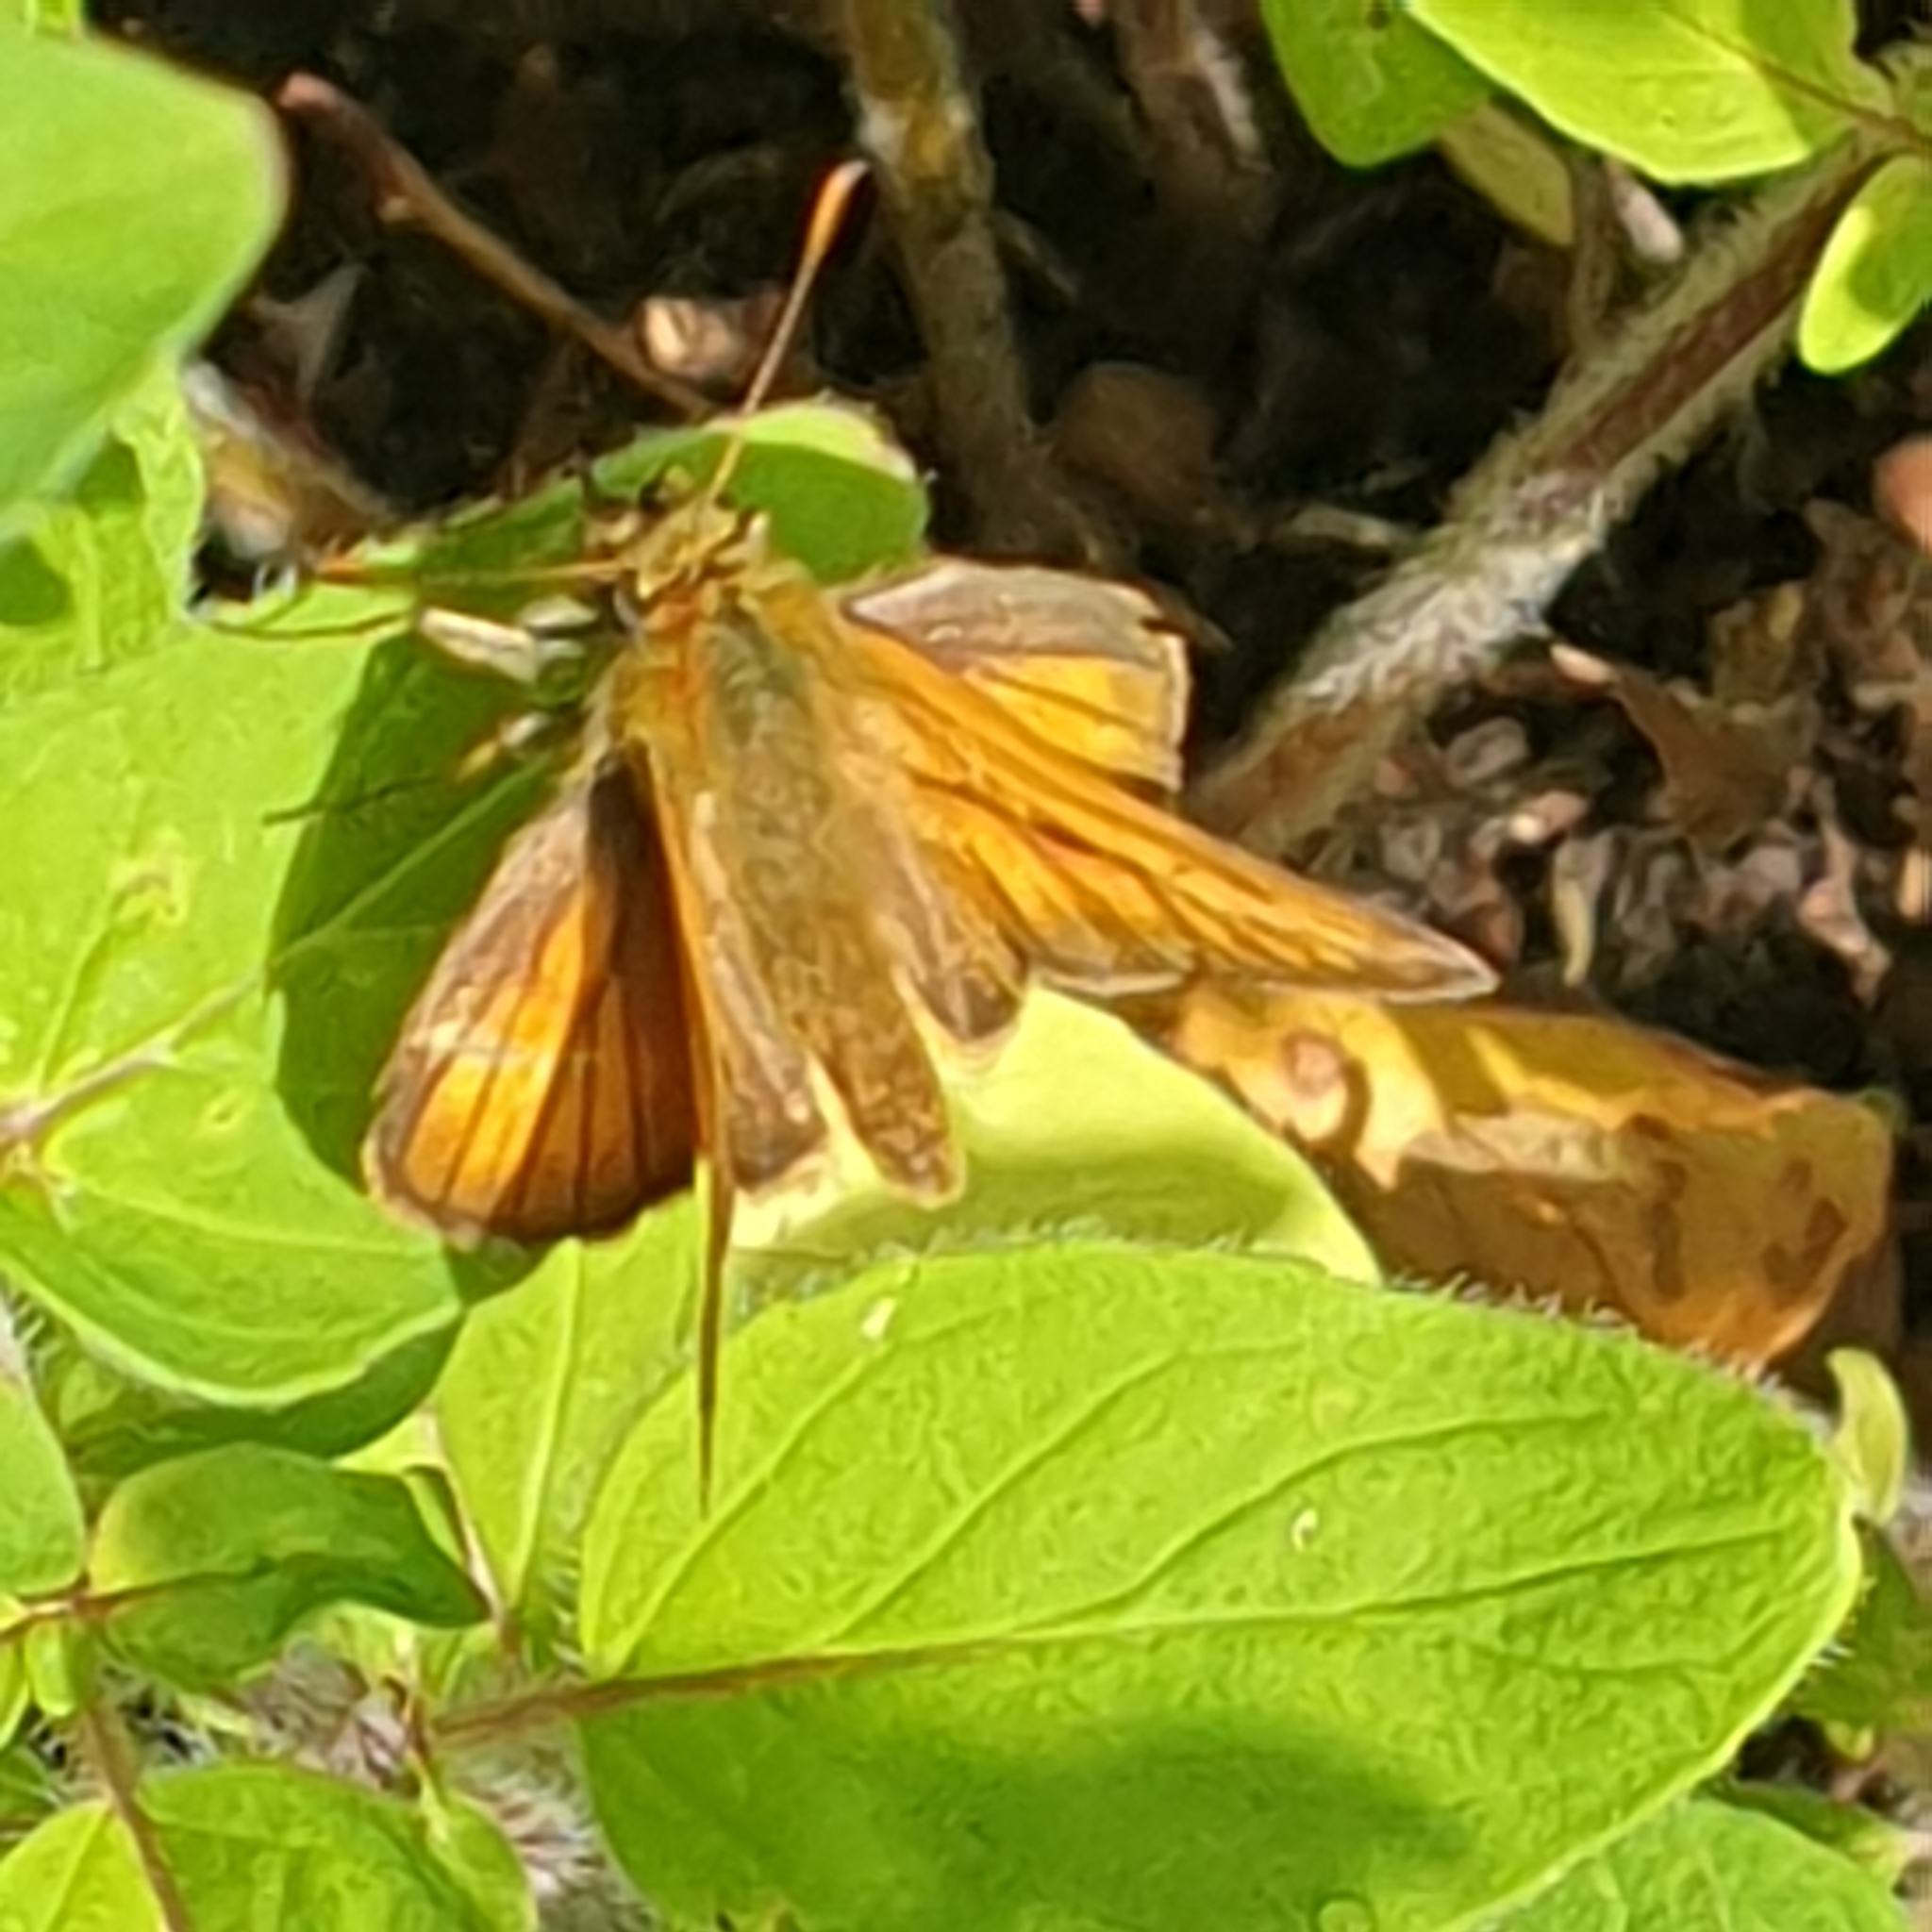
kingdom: Animalia
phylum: Arthropoda
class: Insecta
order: Lepidoptera
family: Hesperiidae
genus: Ochlodes
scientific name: Ochlodes venata
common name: Large skipper
